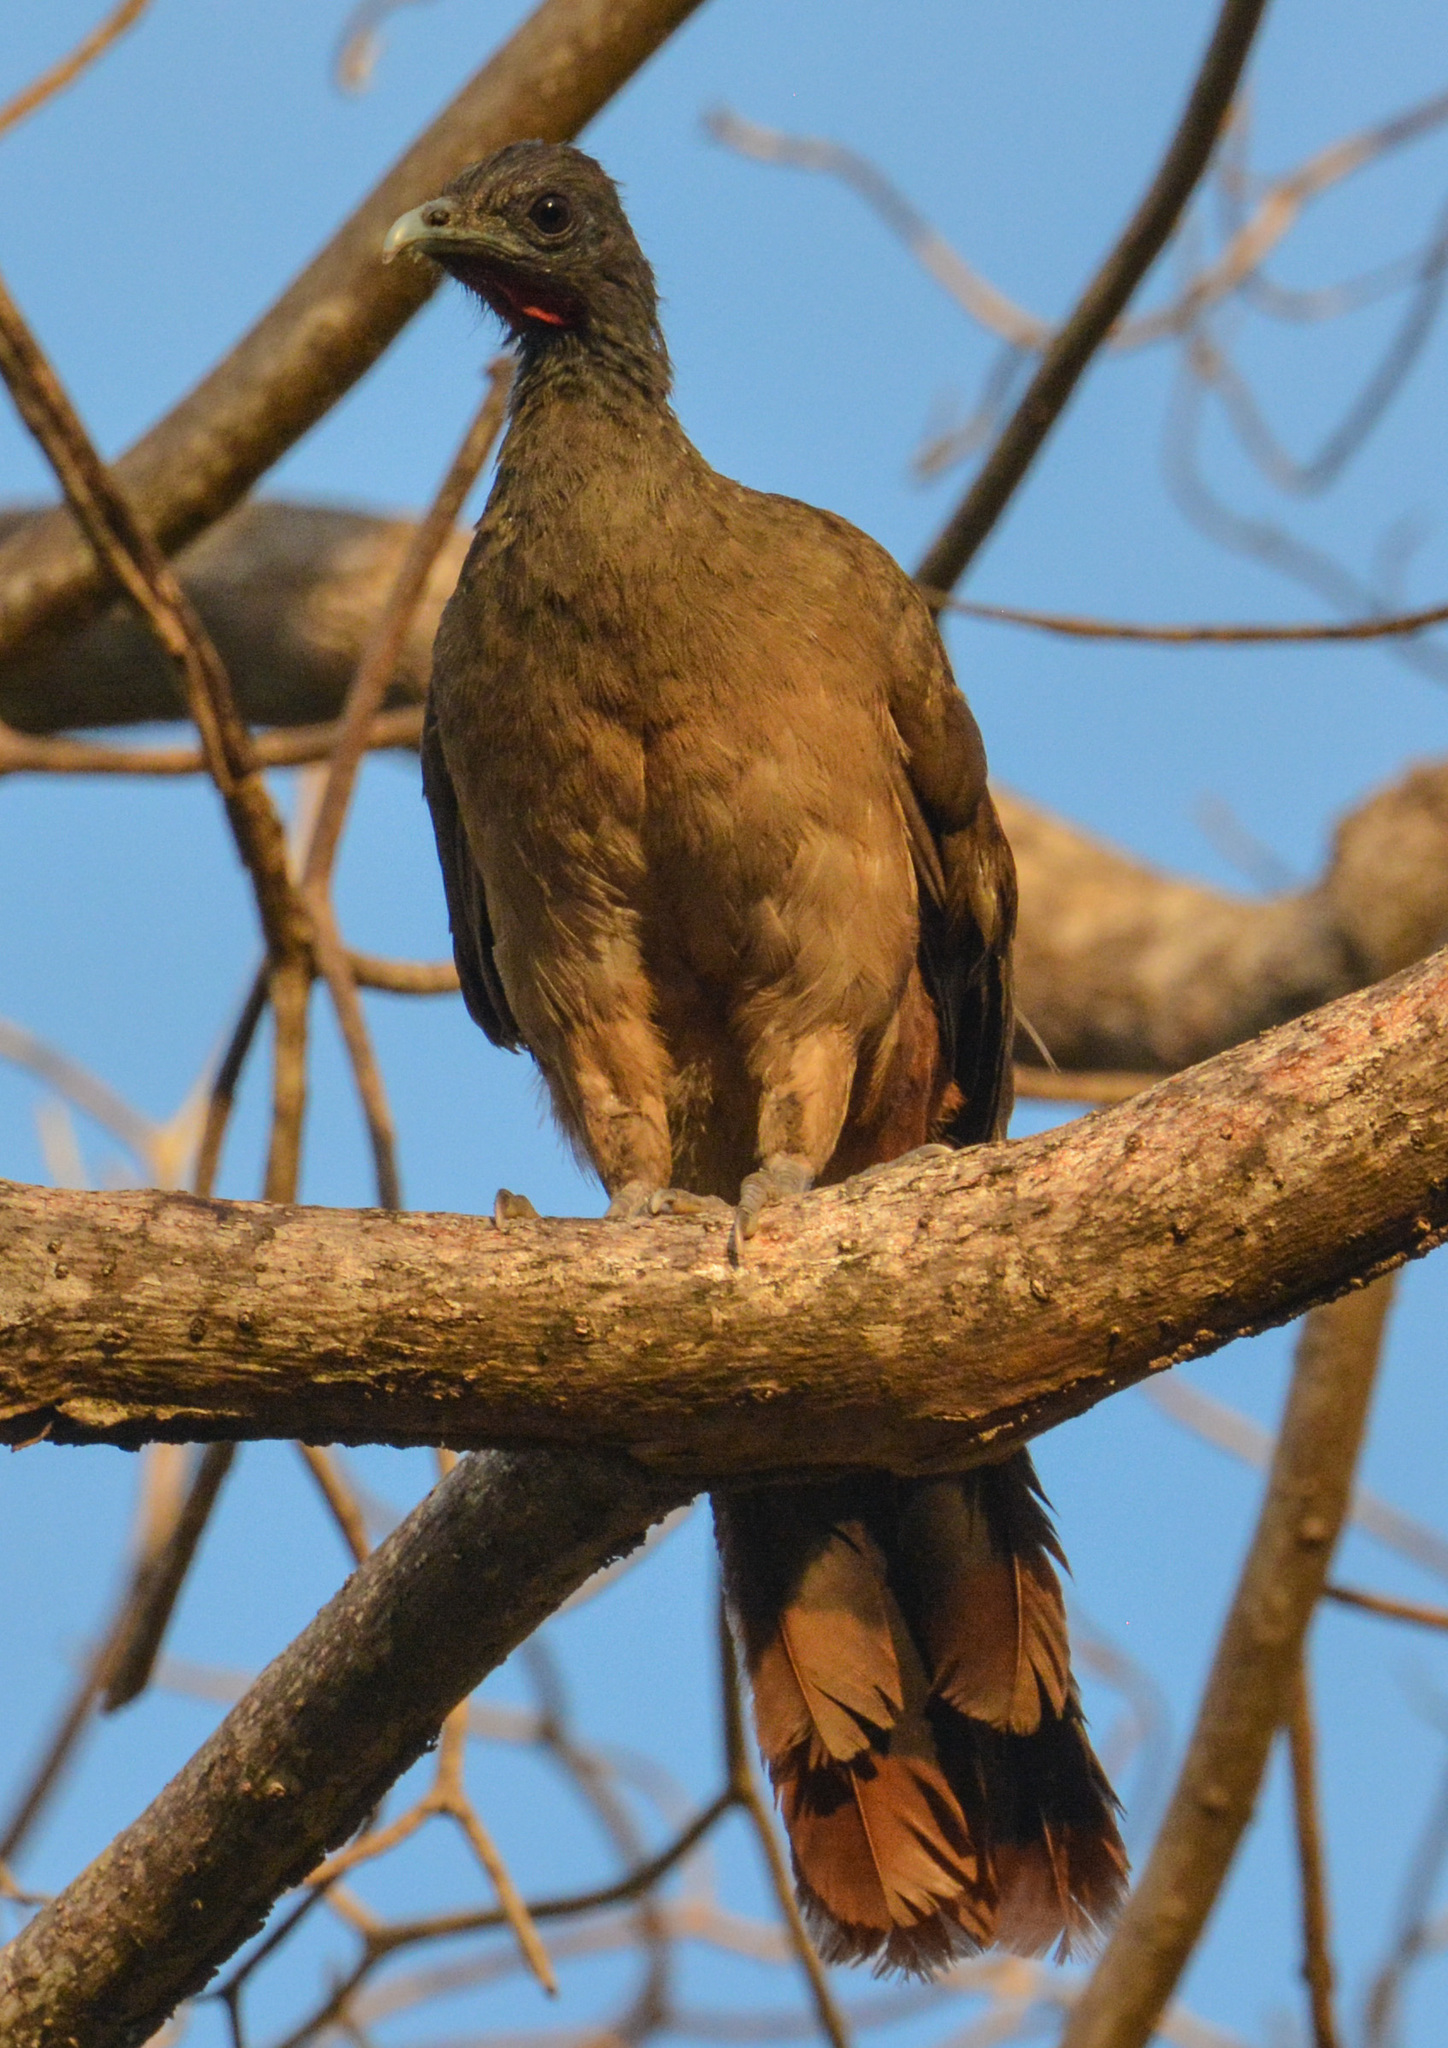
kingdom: Animalia
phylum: Chordata
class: Aves
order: Galliformes
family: Cracidae
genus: Ortalis
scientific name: Ortalis ruficauda
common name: Rufous-vented chachalaca
